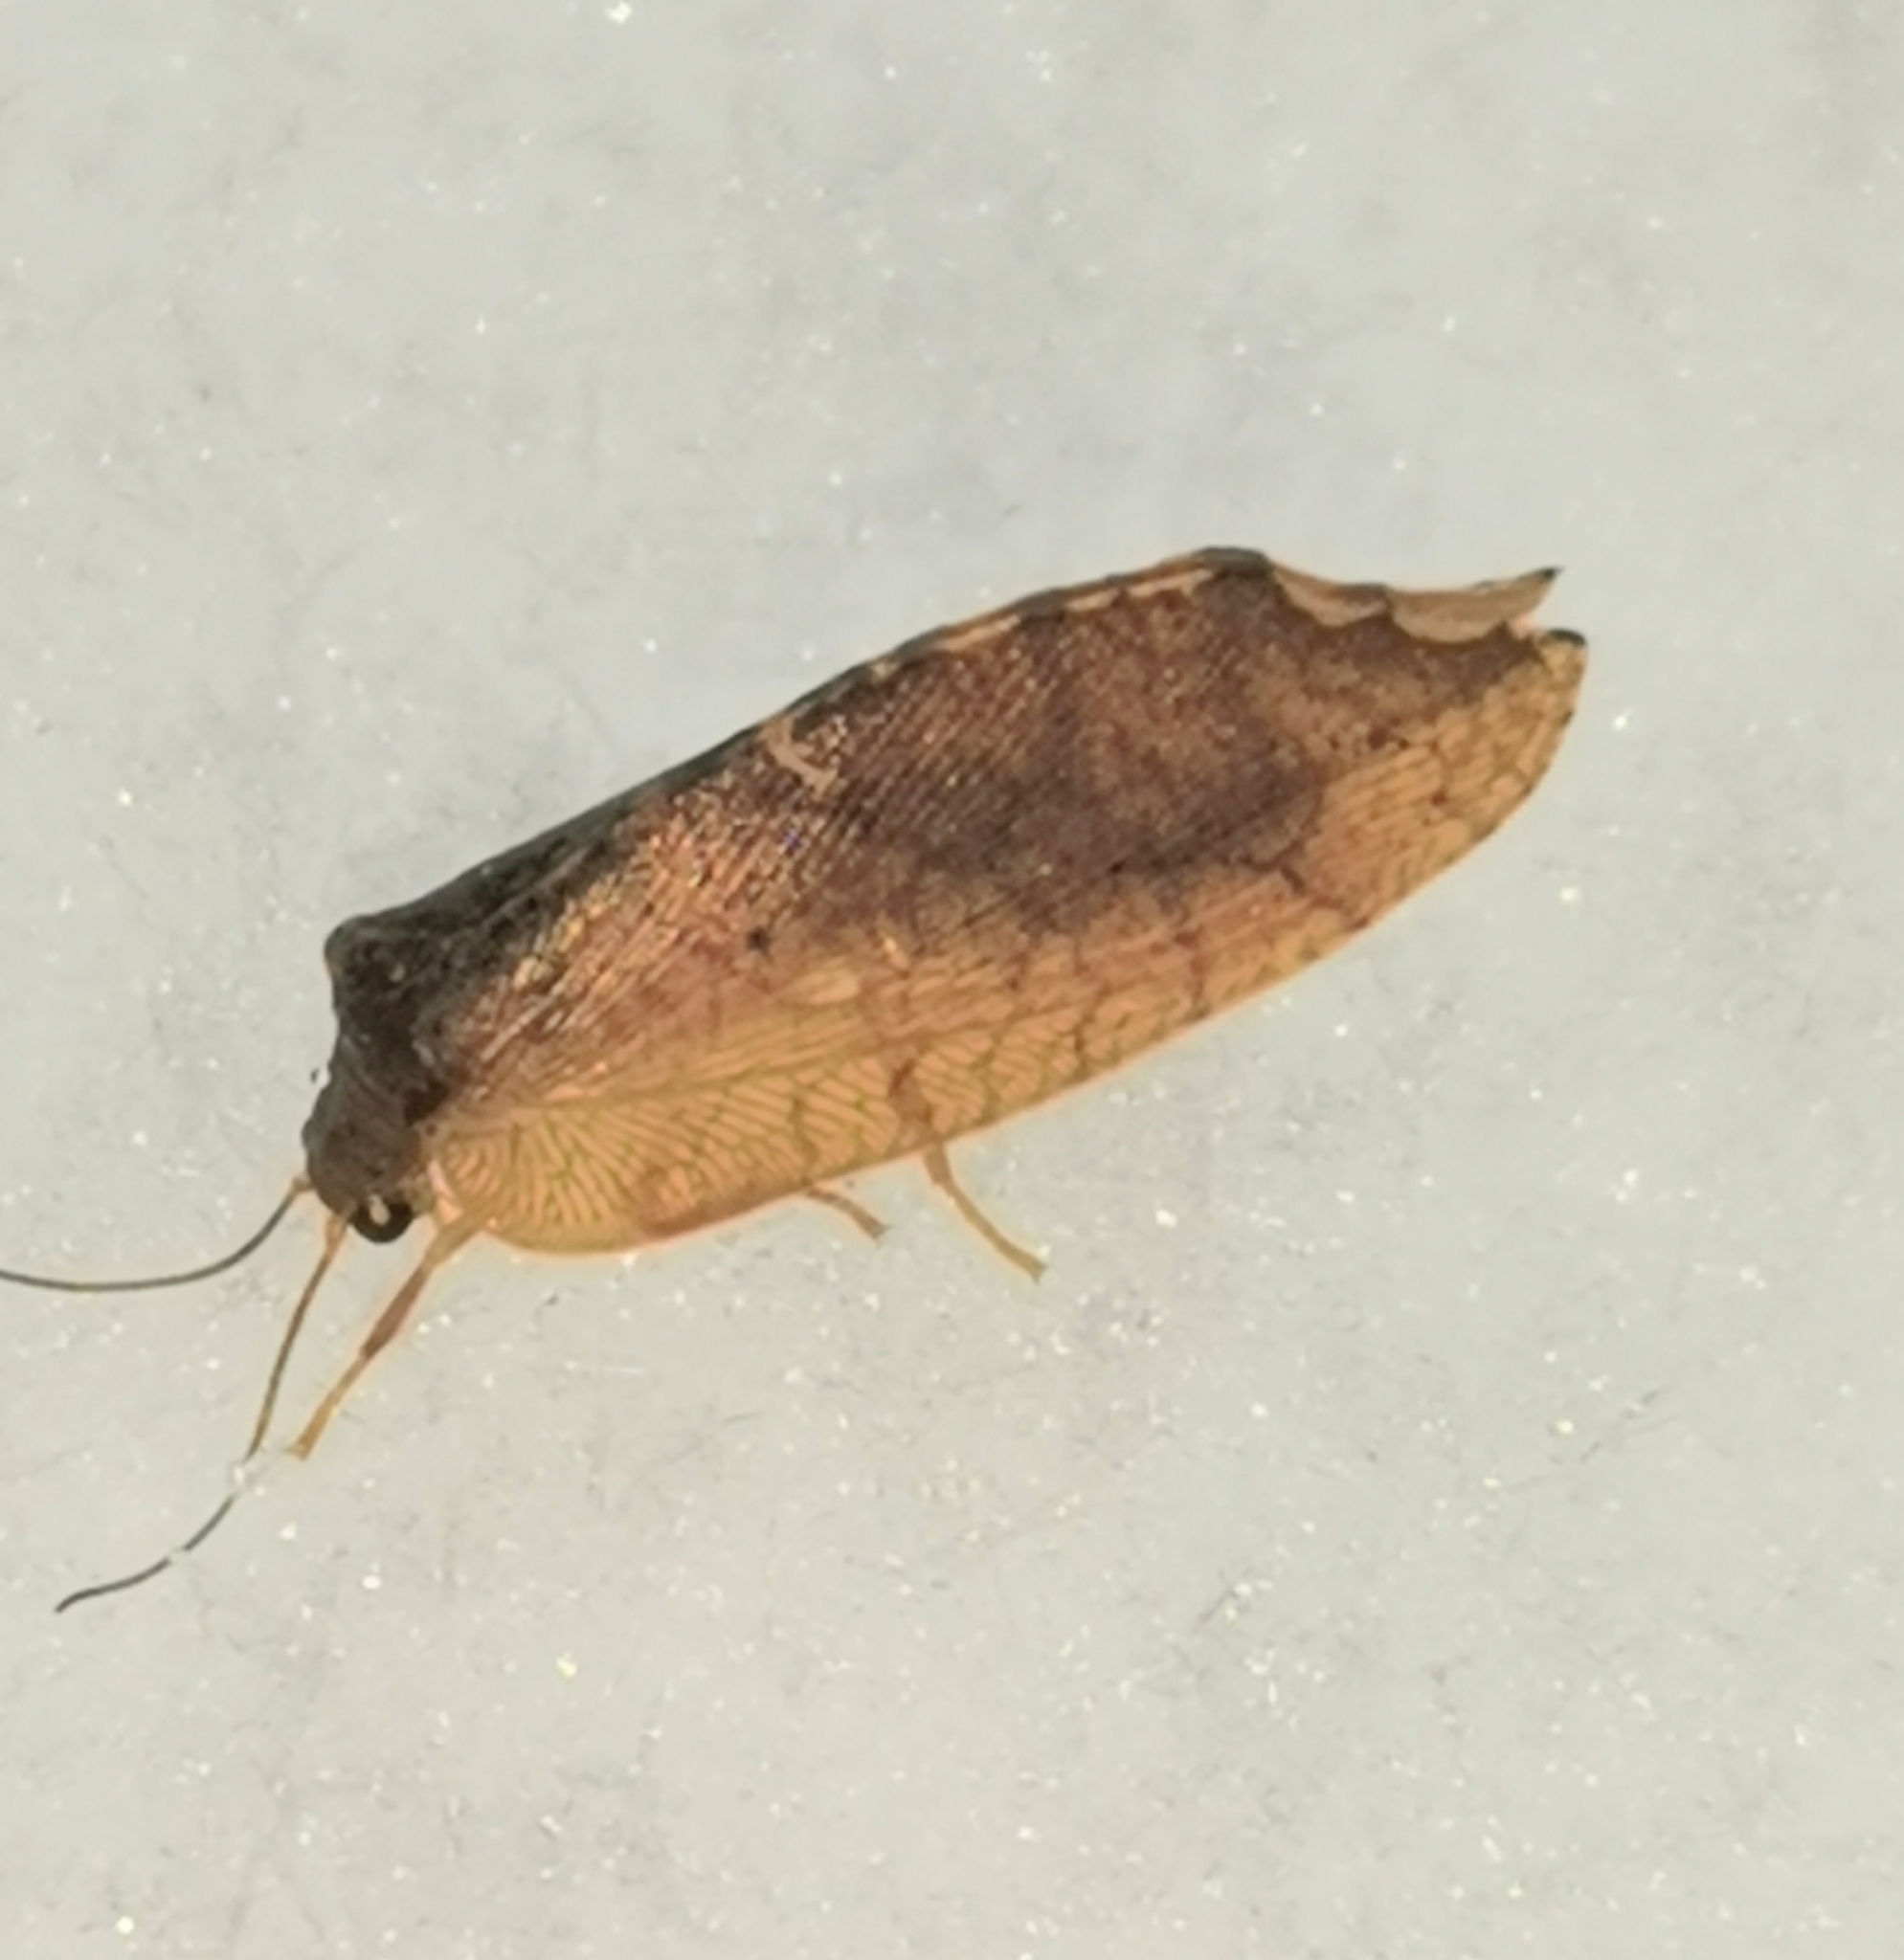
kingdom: Animalia
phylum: Arthropoda
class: Insecta
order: Neuroptera
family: Hemerobiidae
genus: Drepanepteryx
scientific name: Drepanepteryx phalaenoides
